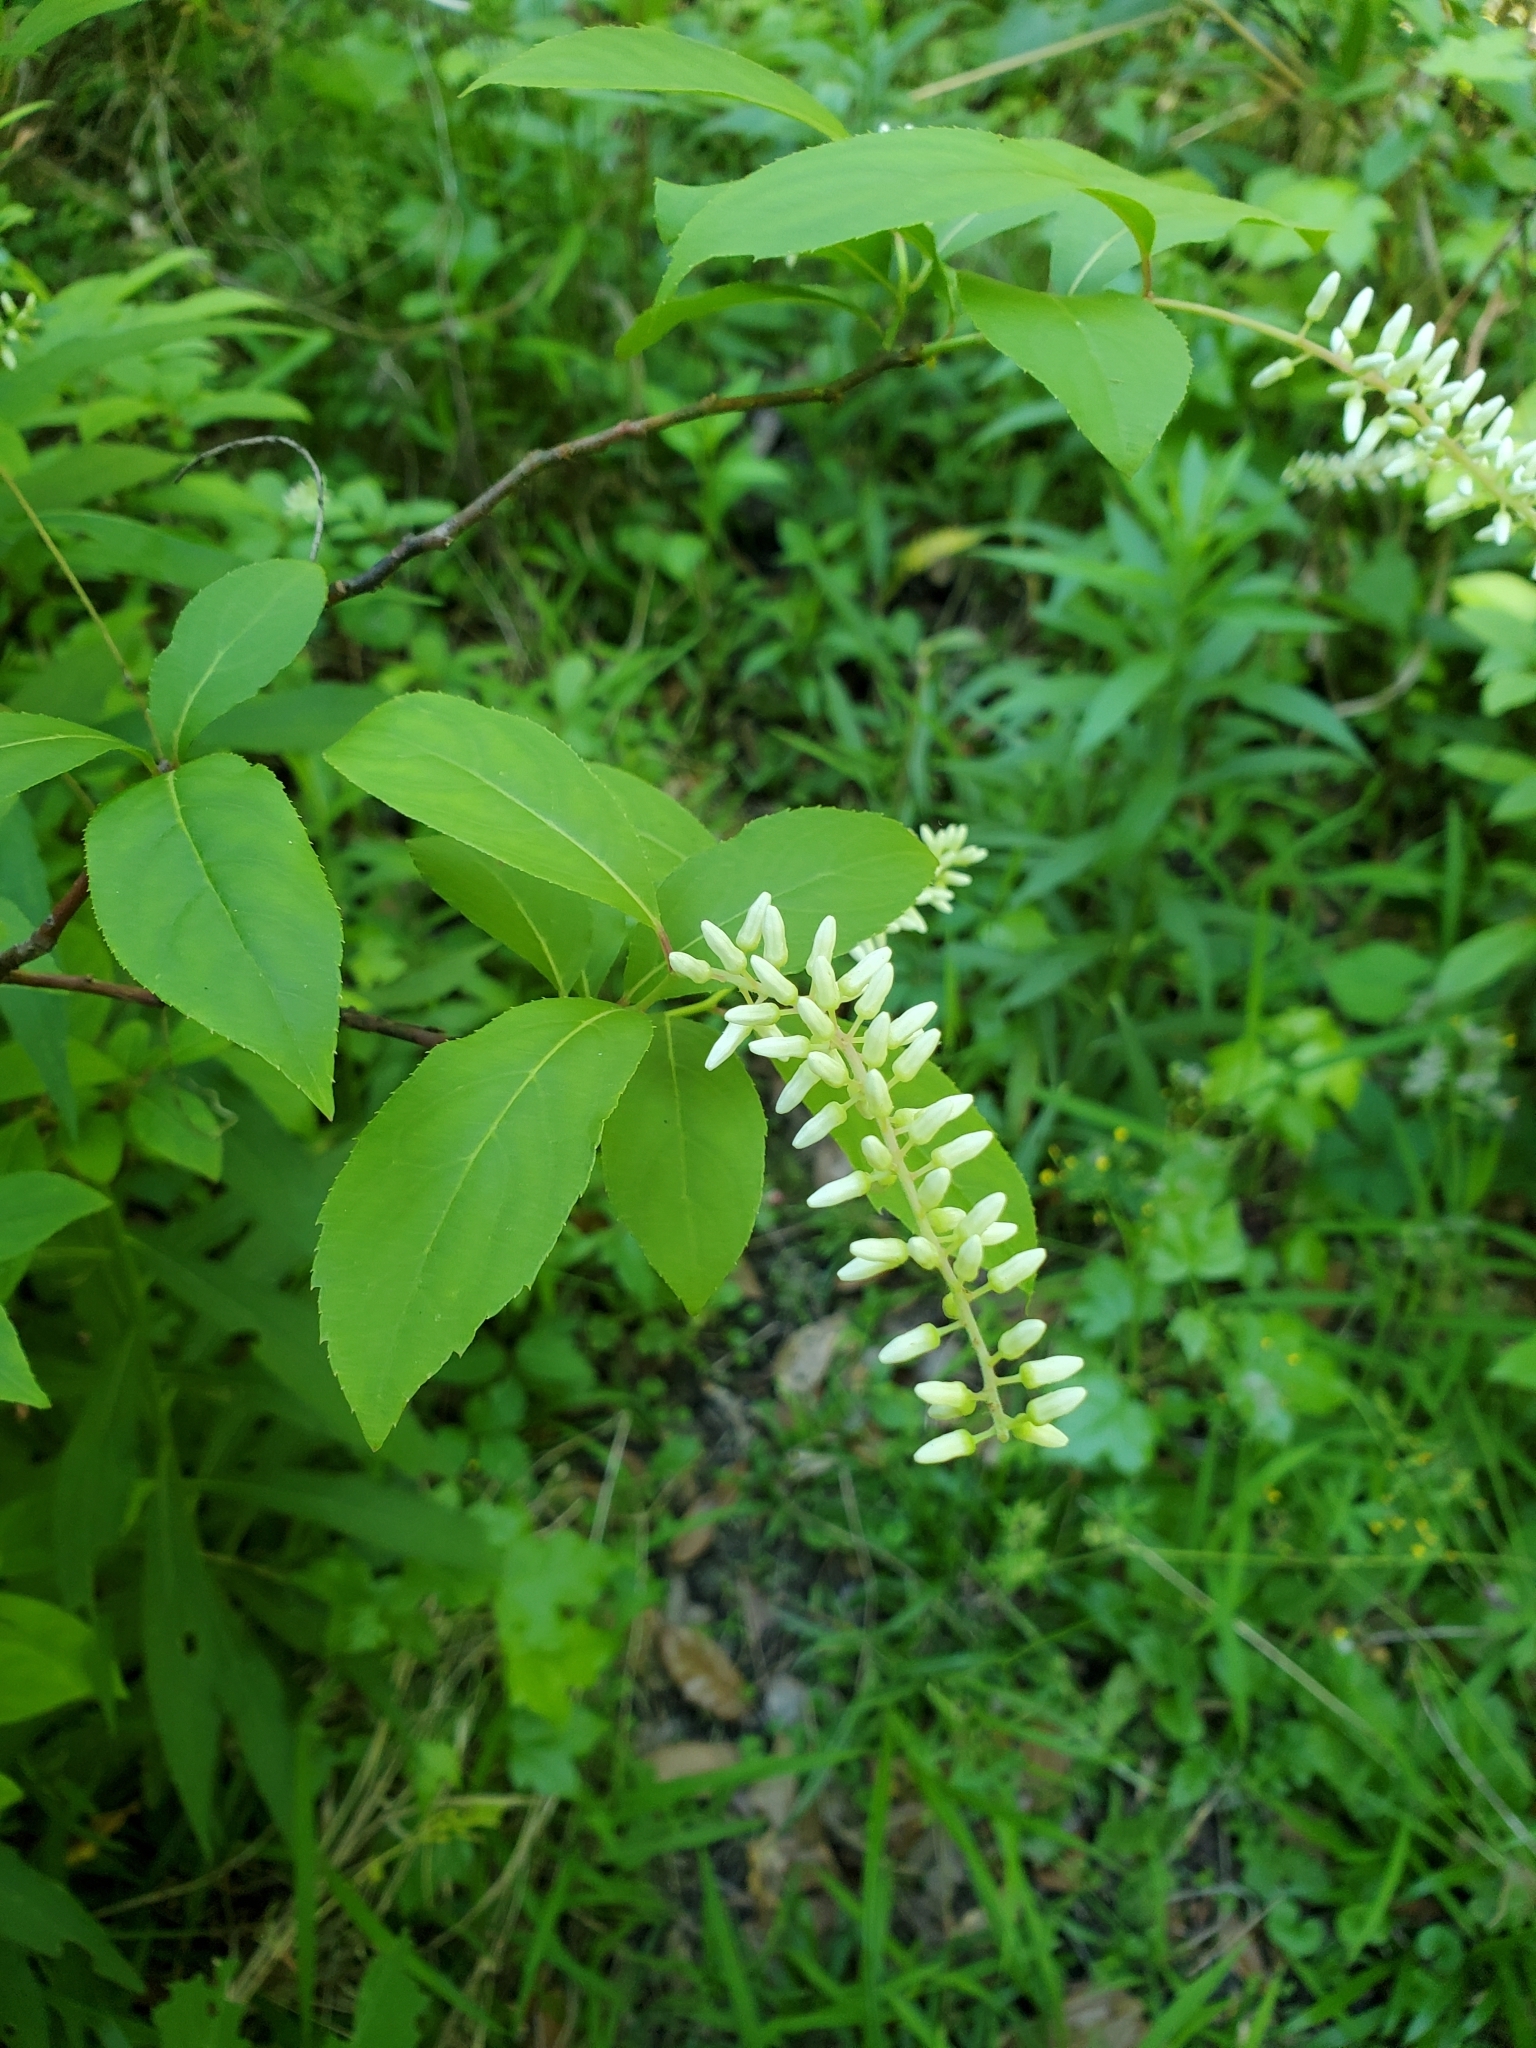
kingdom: Plantae
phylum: Tracheophyta
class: Magnoliopsida
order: Saxifragales
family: Iteaceae
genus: Itea
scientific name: Itea virginica
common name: Sweetspire
